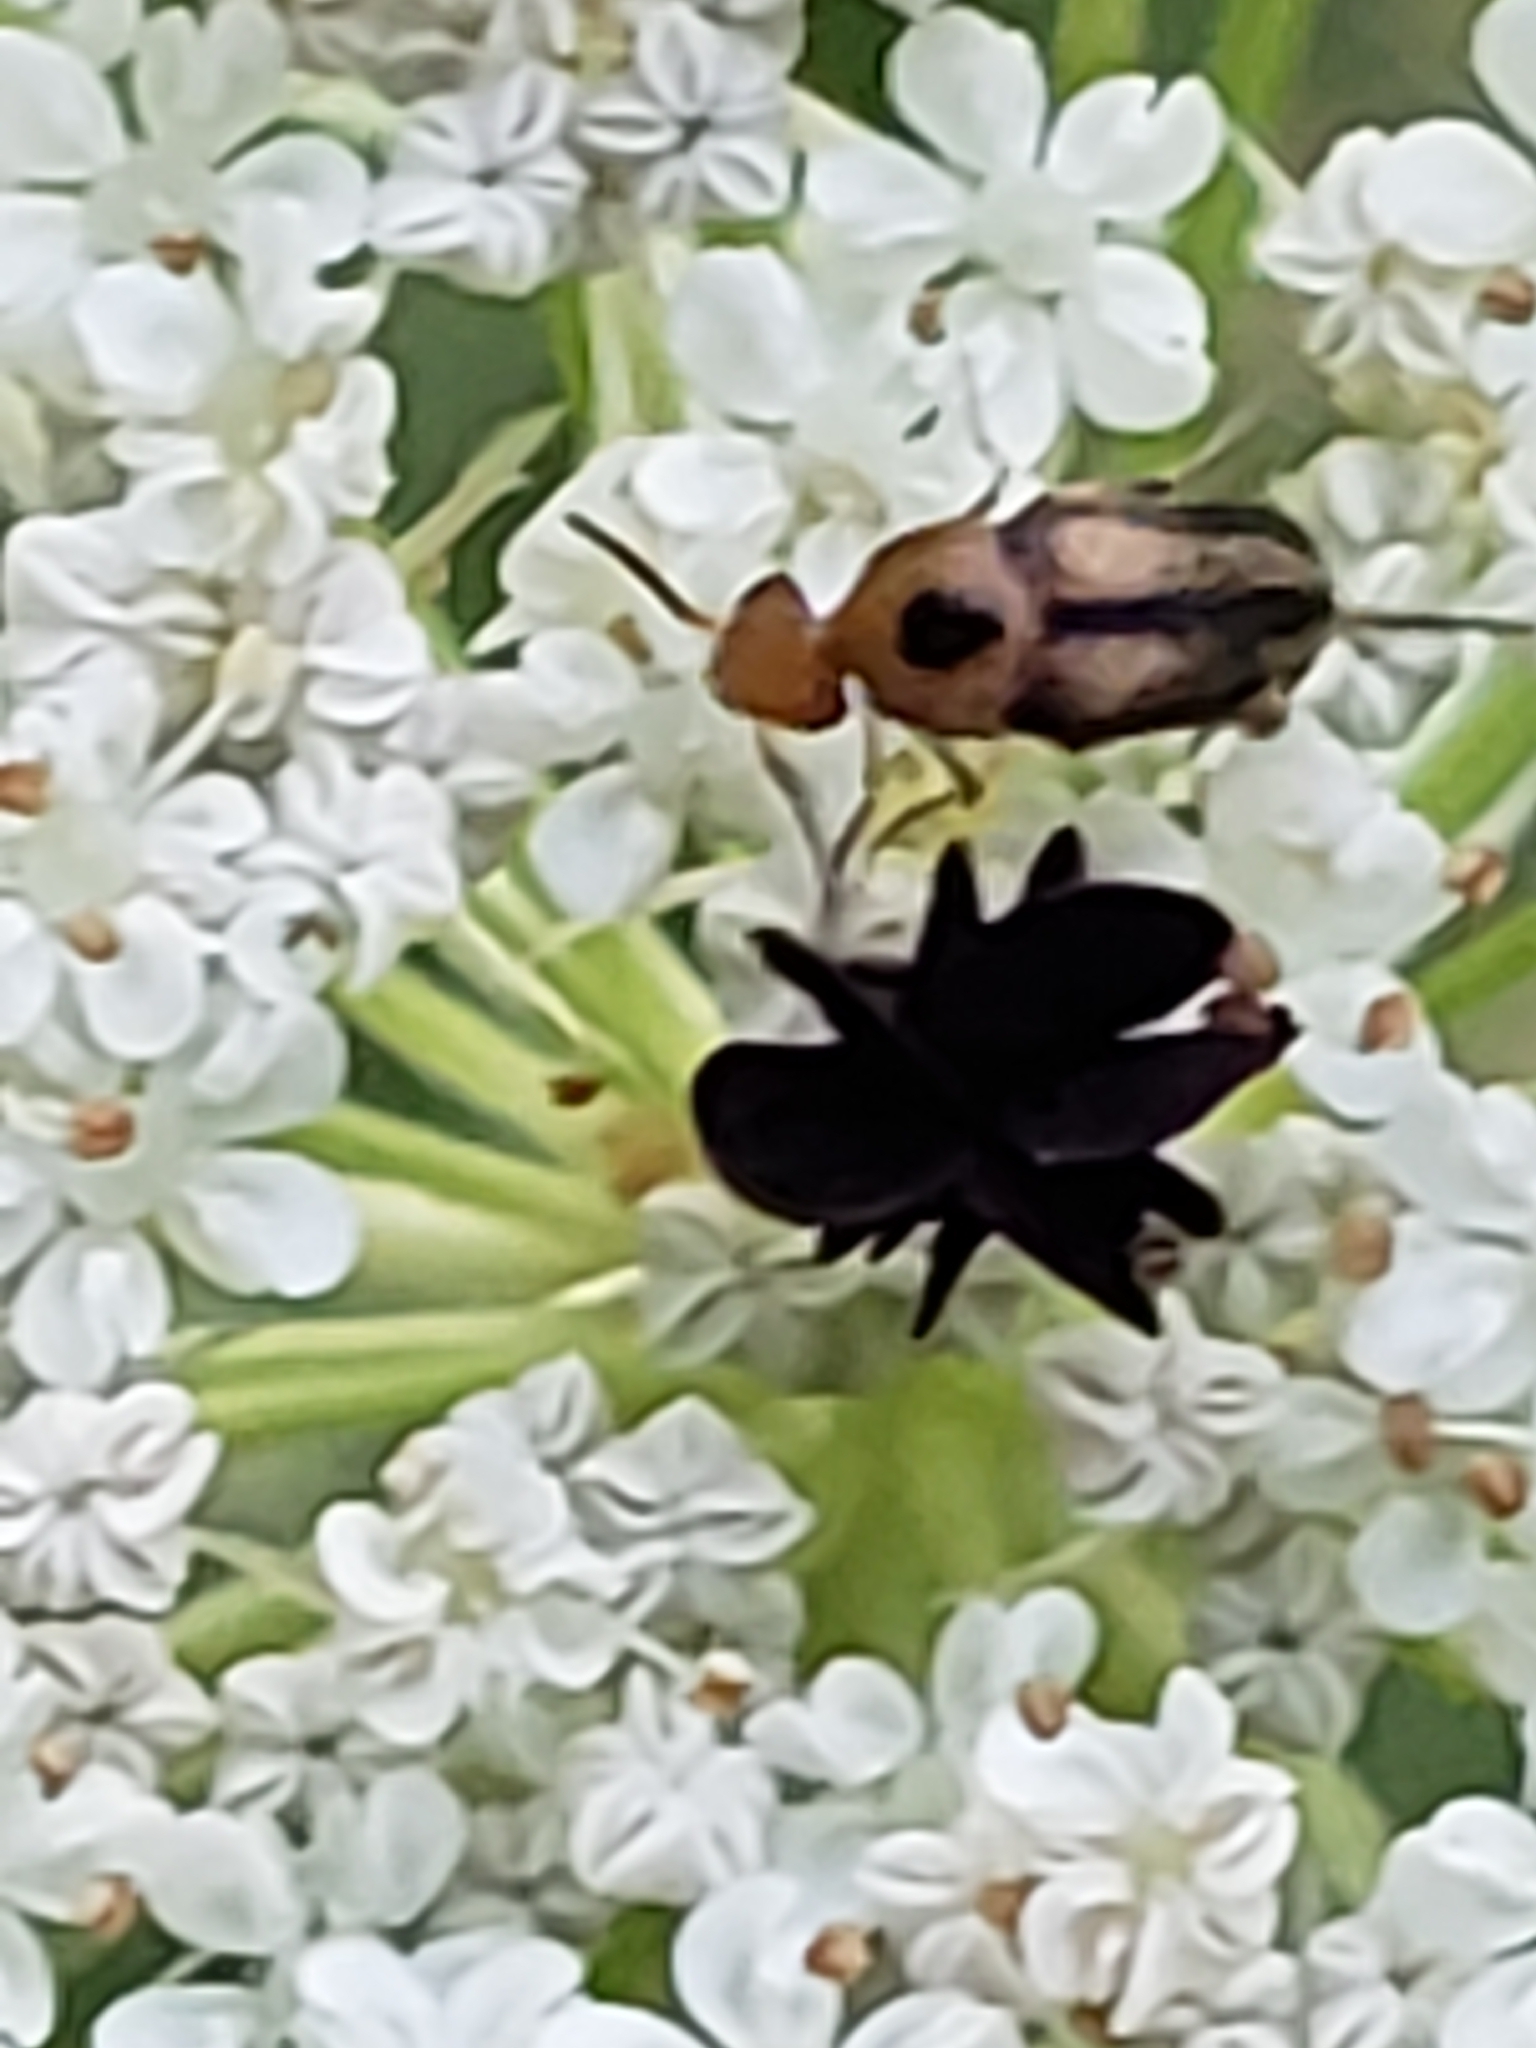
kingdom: Animalia
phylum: Arthropoda
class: Insecta
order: Coleoptera
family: Mordellidae
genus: Mordellistena
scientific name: Mordellistena limbalis
